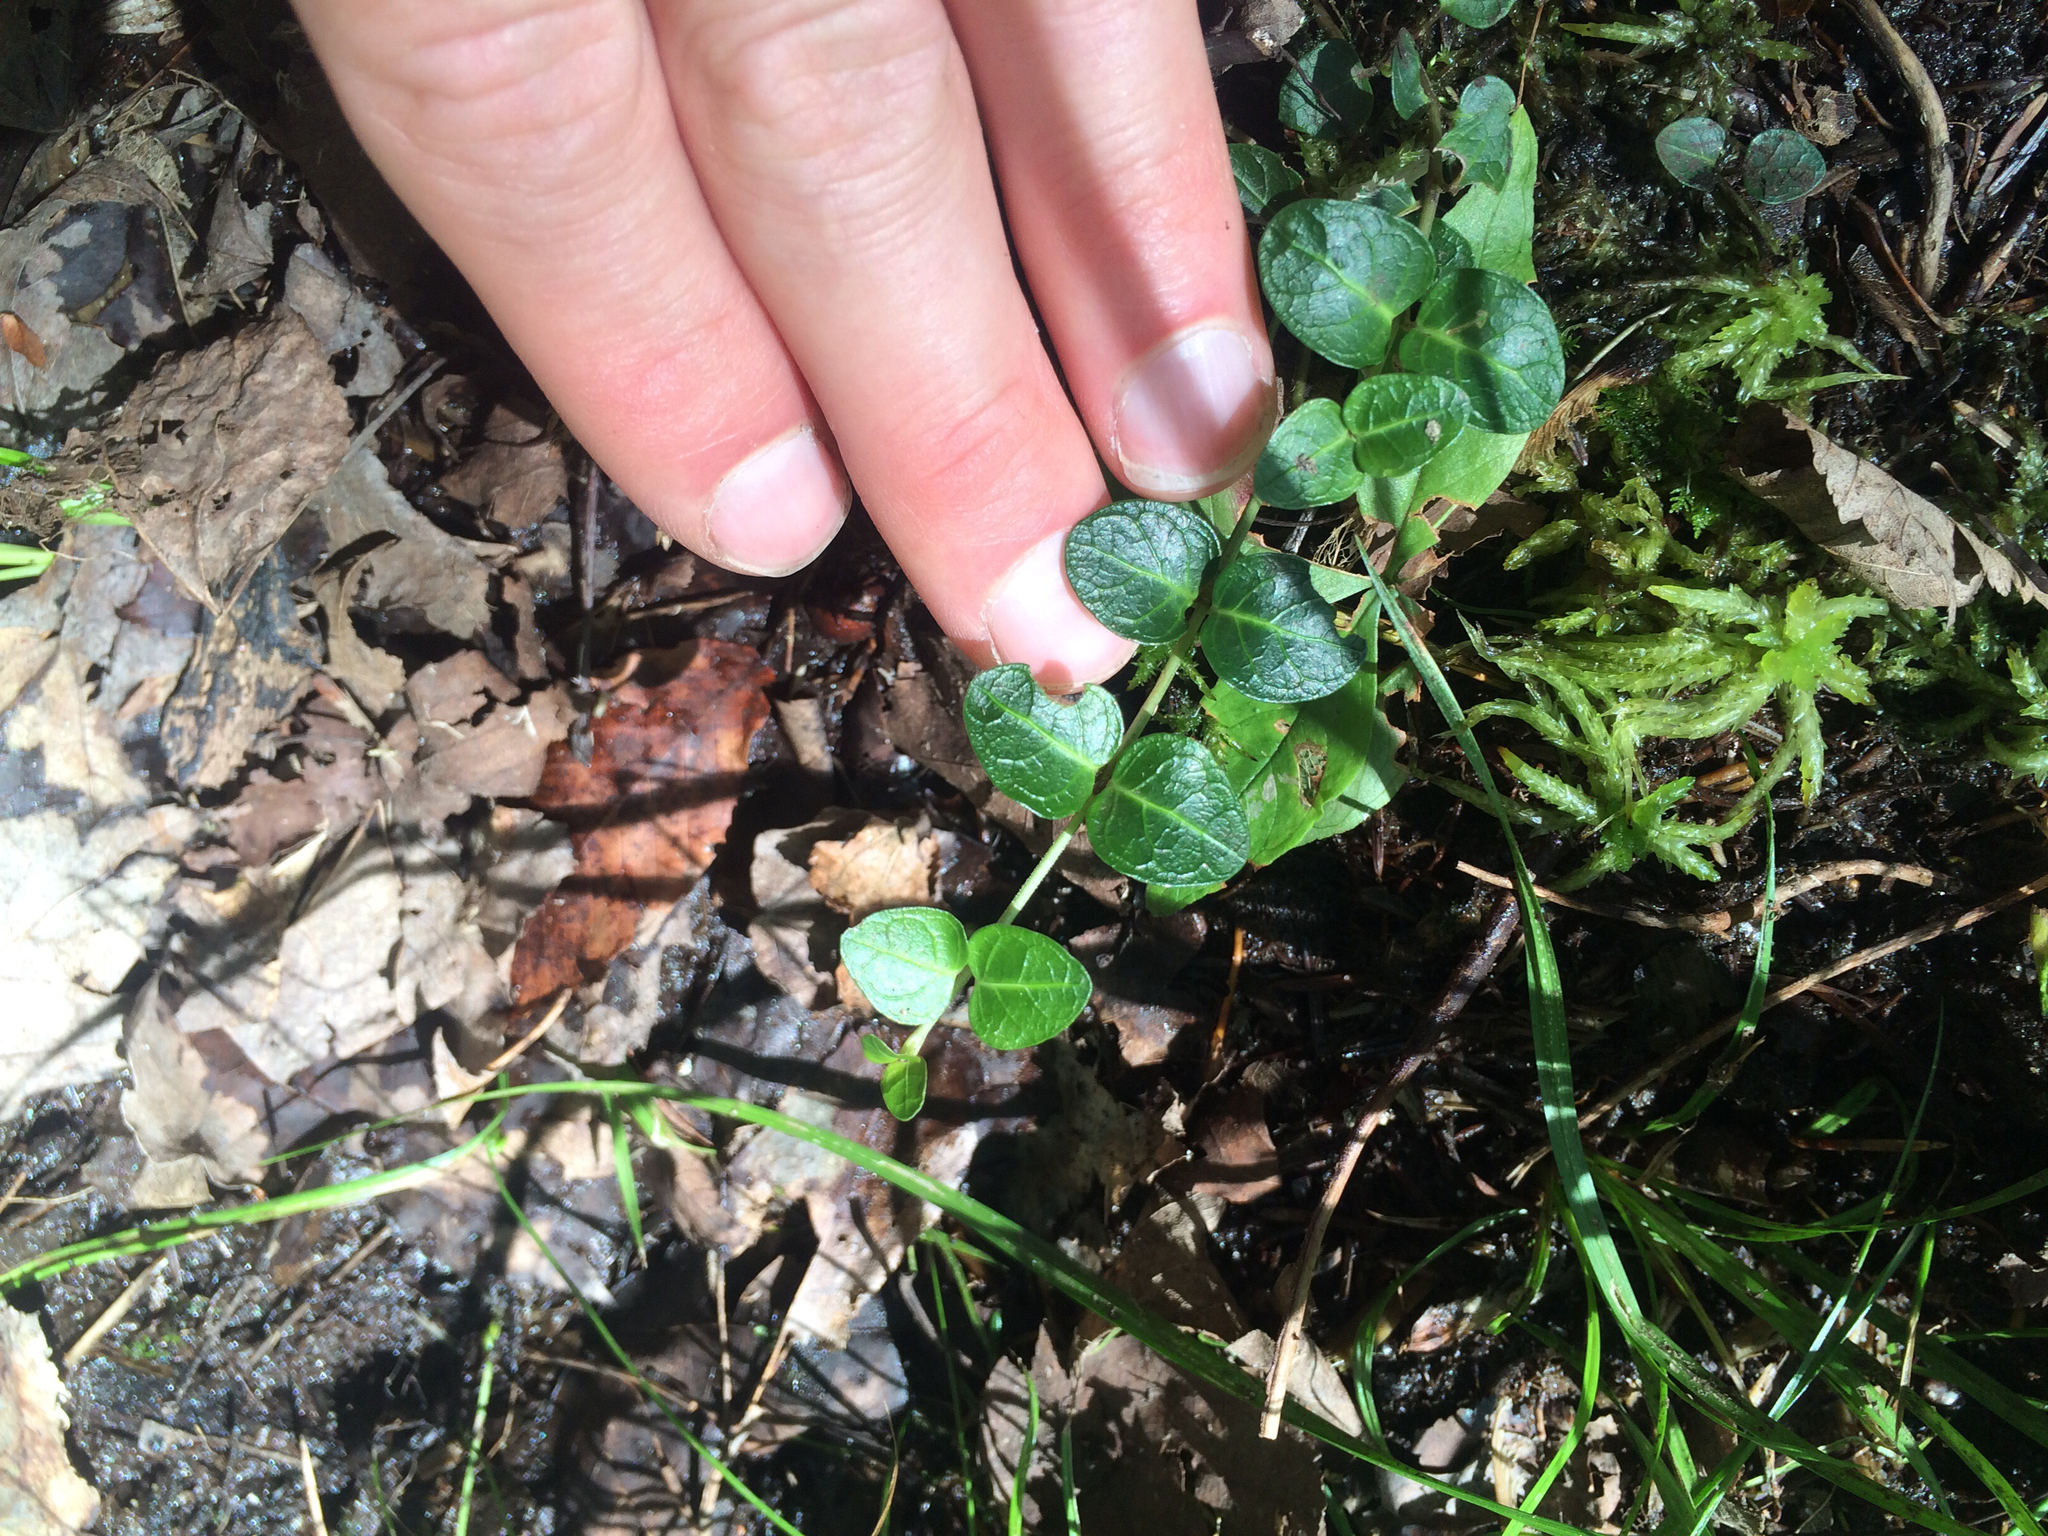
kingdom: Plantae
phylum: Tracheophyta
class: Magnoliopsida
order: Gentianales
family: Rubiaceae
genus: Mitchella
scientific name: Mitchella repens
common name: Partridge-berry
